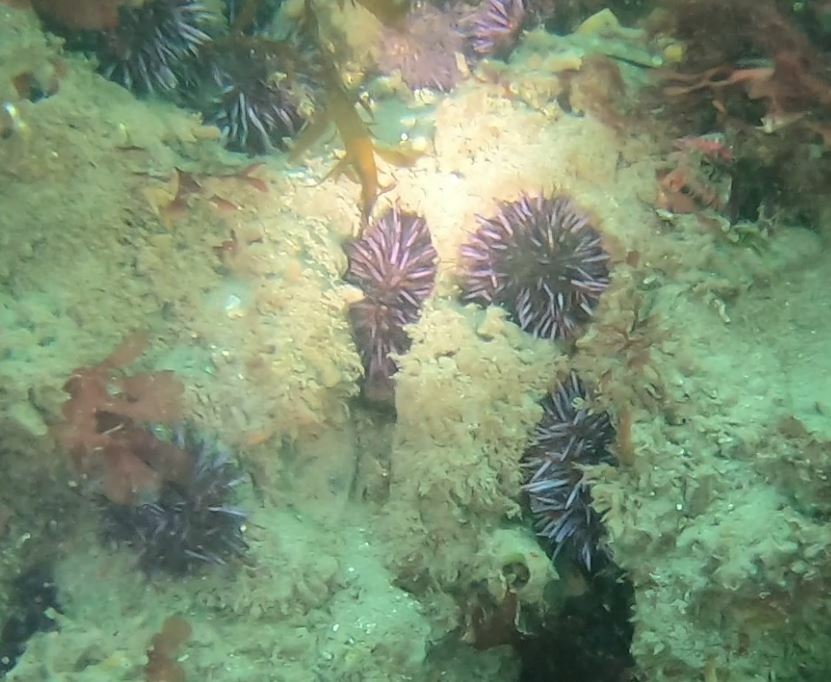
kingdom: Animalia
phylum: Echinodermata
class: Echinoidea
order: Camarodonta
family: Strongylocentrotidae
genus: Strongylocentrotus
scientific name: Strongylocentrotus purpuratus
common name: Purple sea urchin
